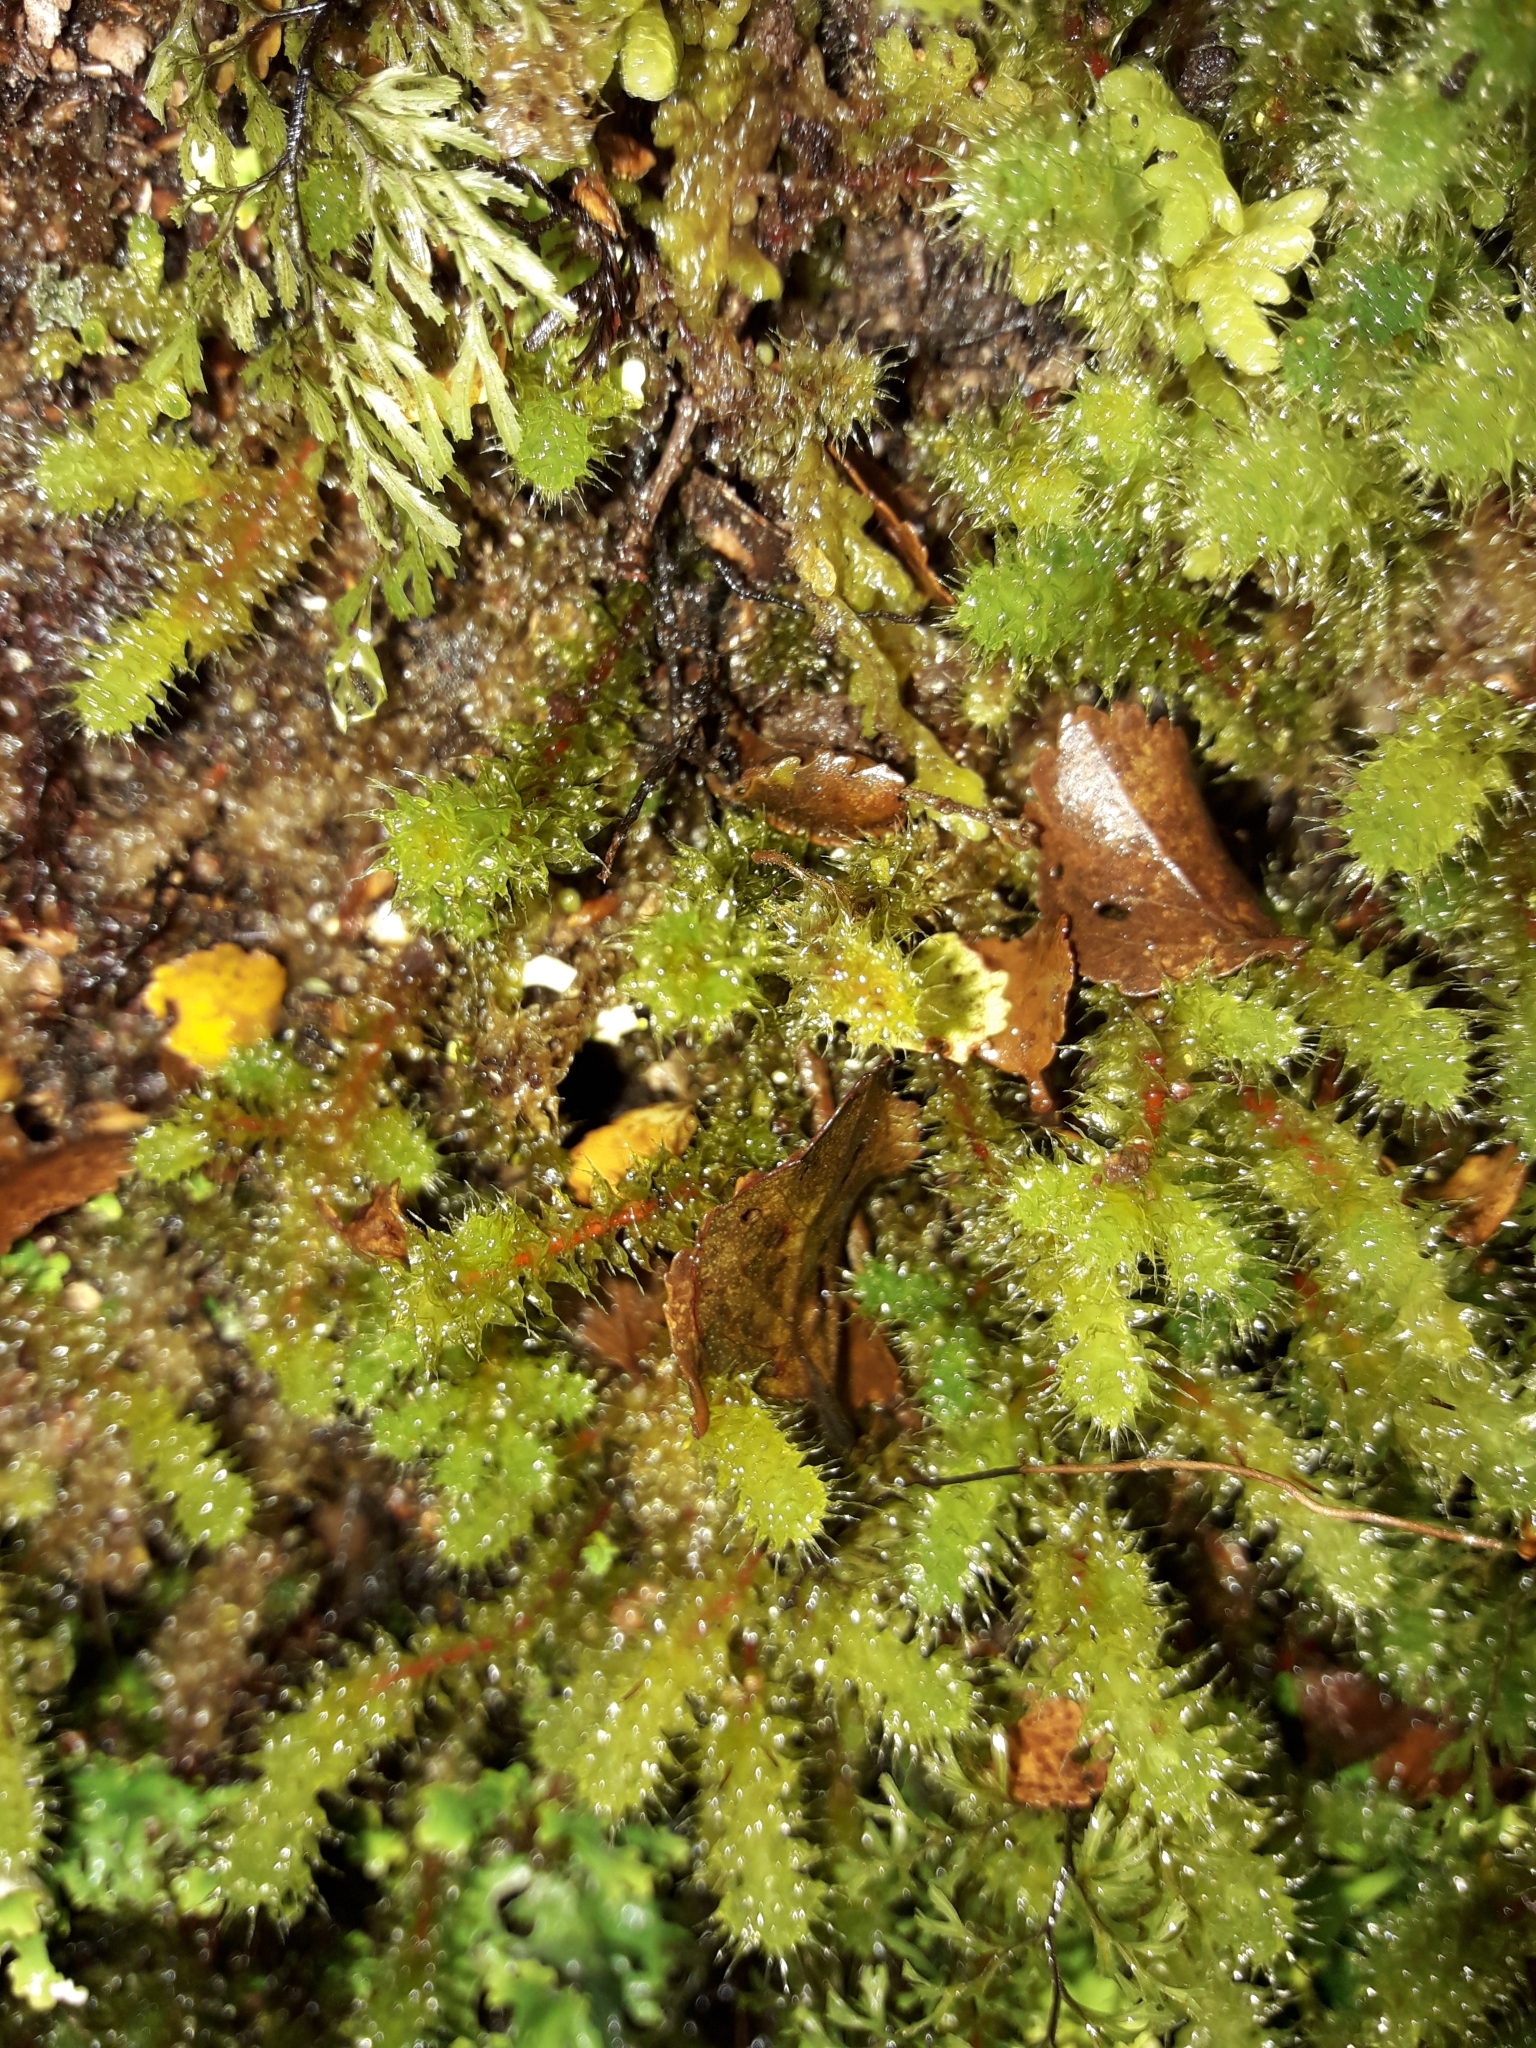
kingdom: Plantae
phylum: Bryophyta
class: Bryopsida
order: Ptychomniales
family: Ptychomniaceae
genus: Ptychomnion
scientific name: Ptychomnion aciculare
